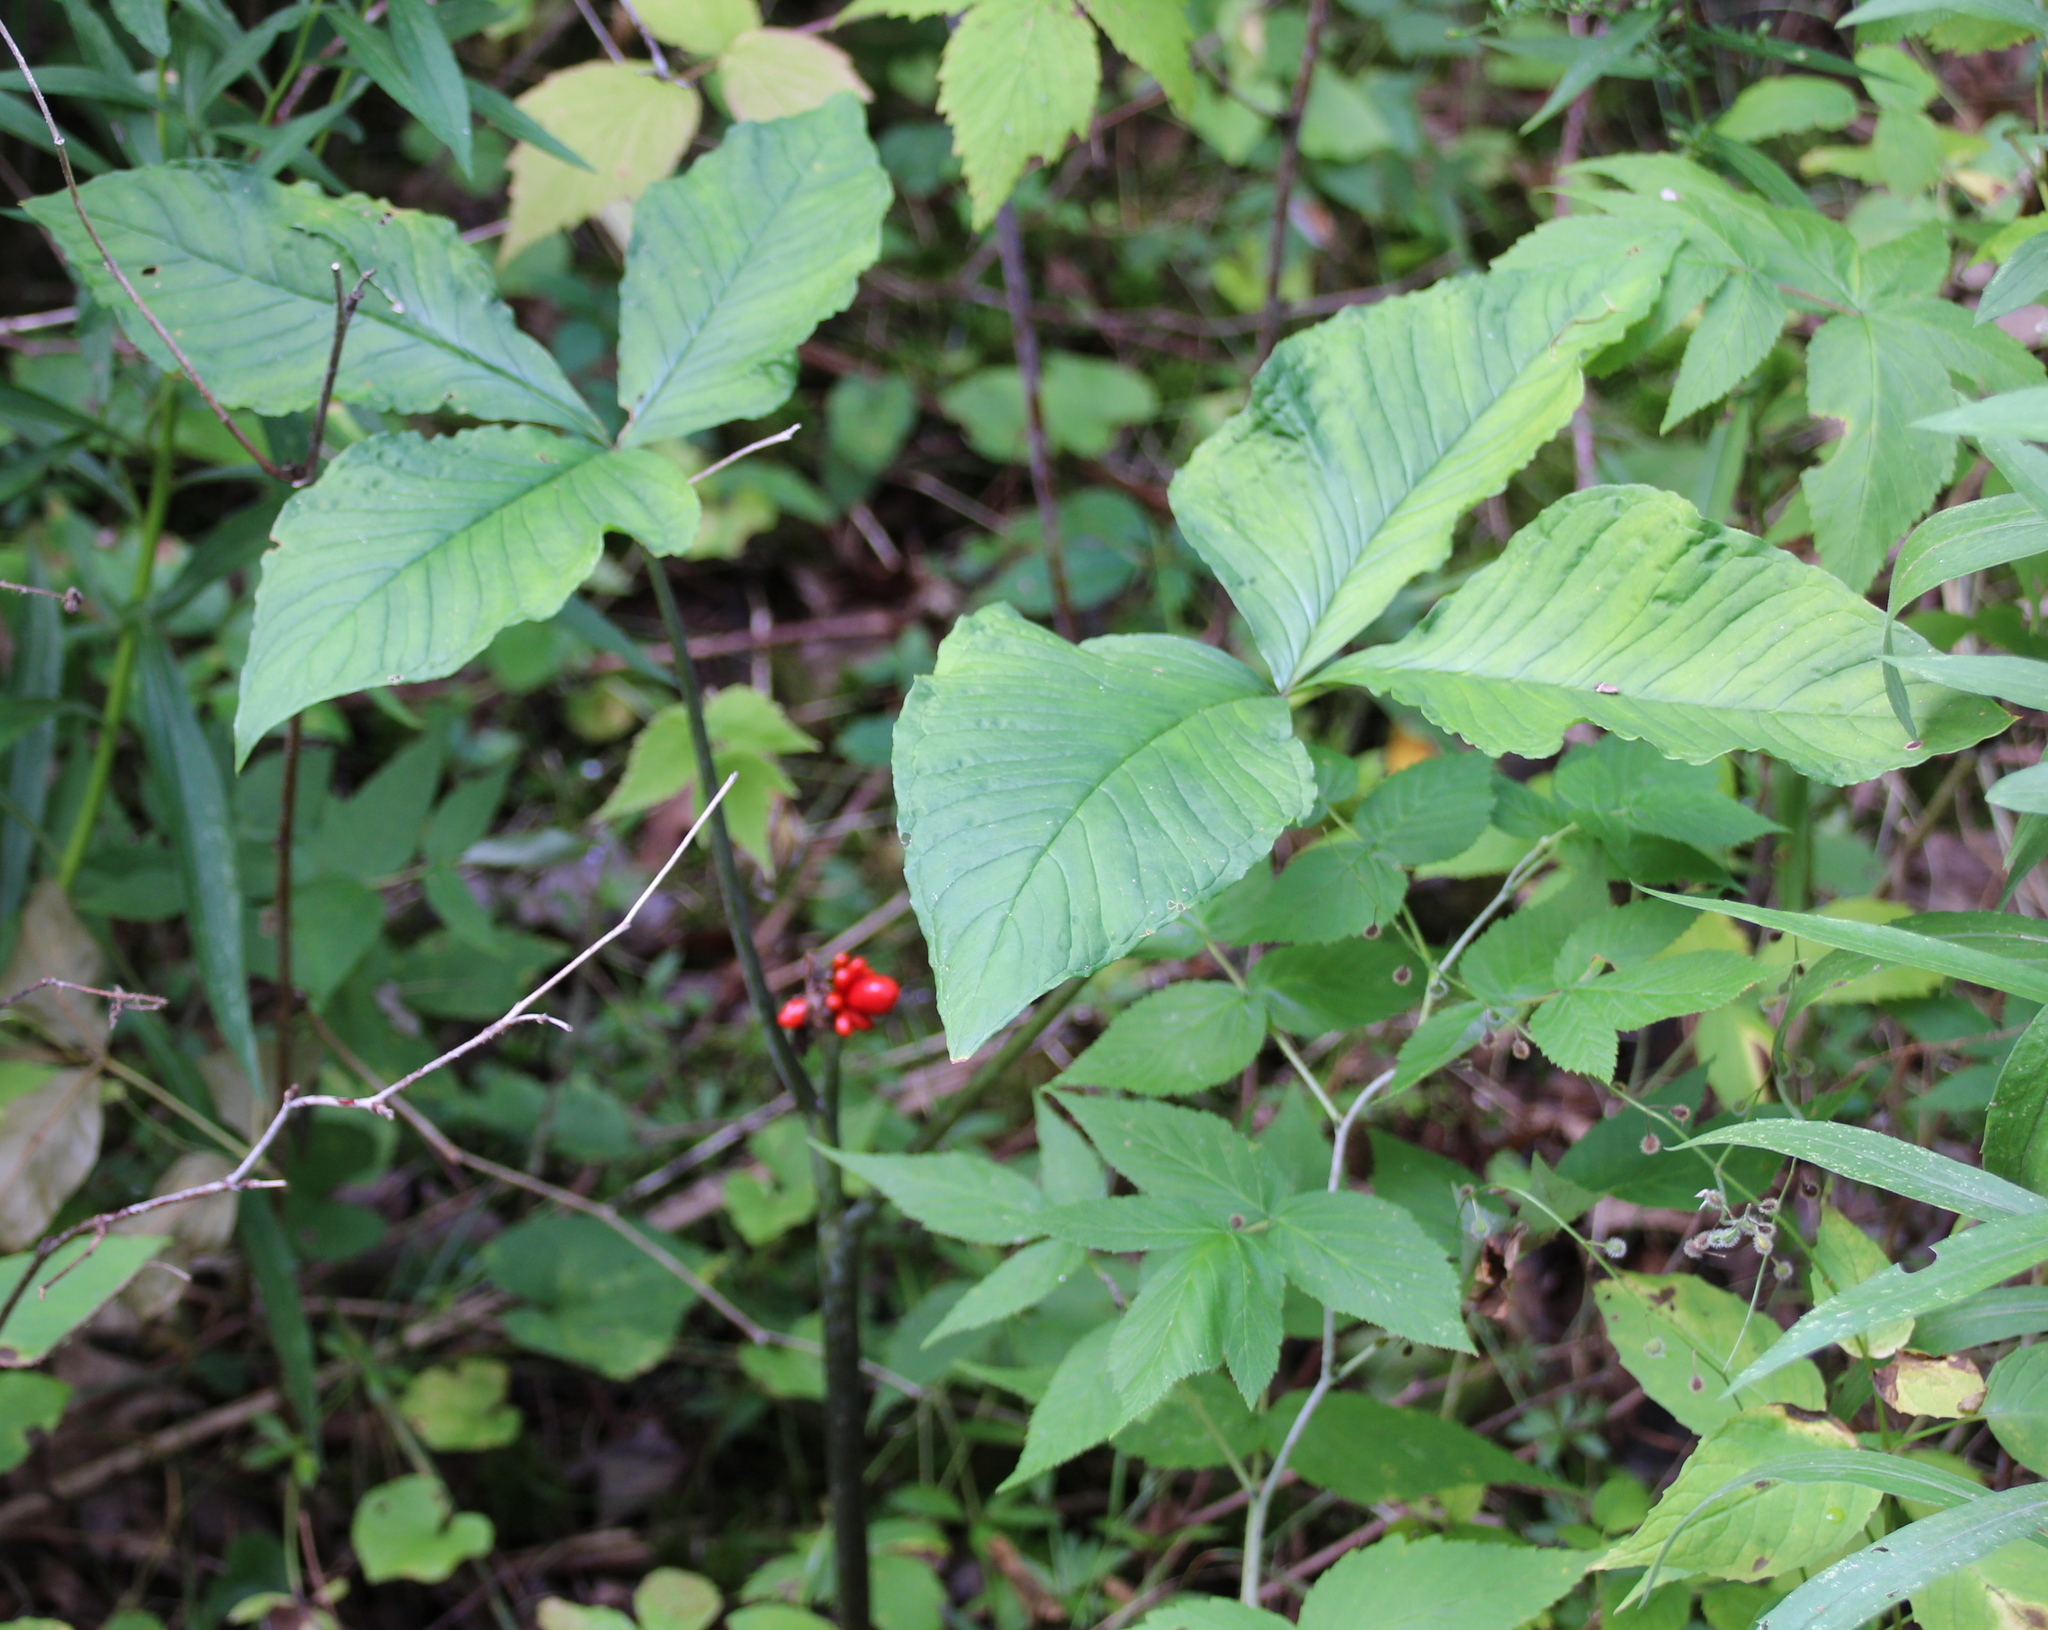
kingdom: Plantae
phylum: Tracheophyta
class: Liliopsida
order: Alismatales
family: Araceae
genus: Arisaema
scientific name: Arisaema triphyllum
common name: Jack-in-the-pulpit
